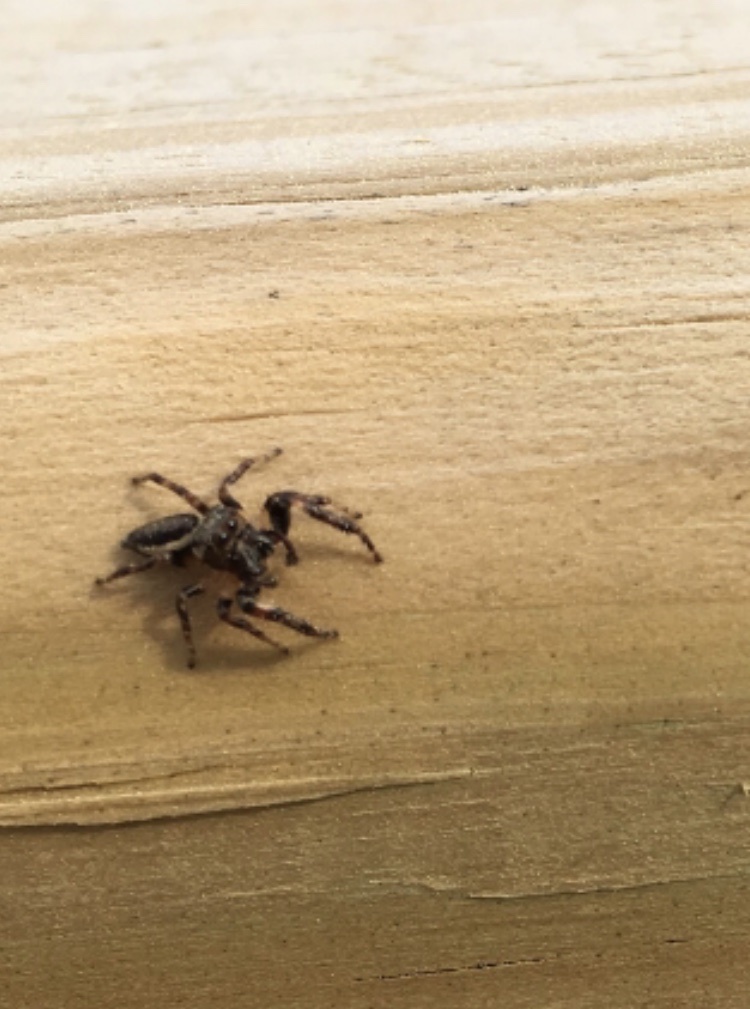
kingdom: Animalia
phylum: Arthropoda
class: Arachnida
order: Araneae
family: Salticidae
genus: Eris
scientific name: Eris militaris
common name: Bronze jumper
